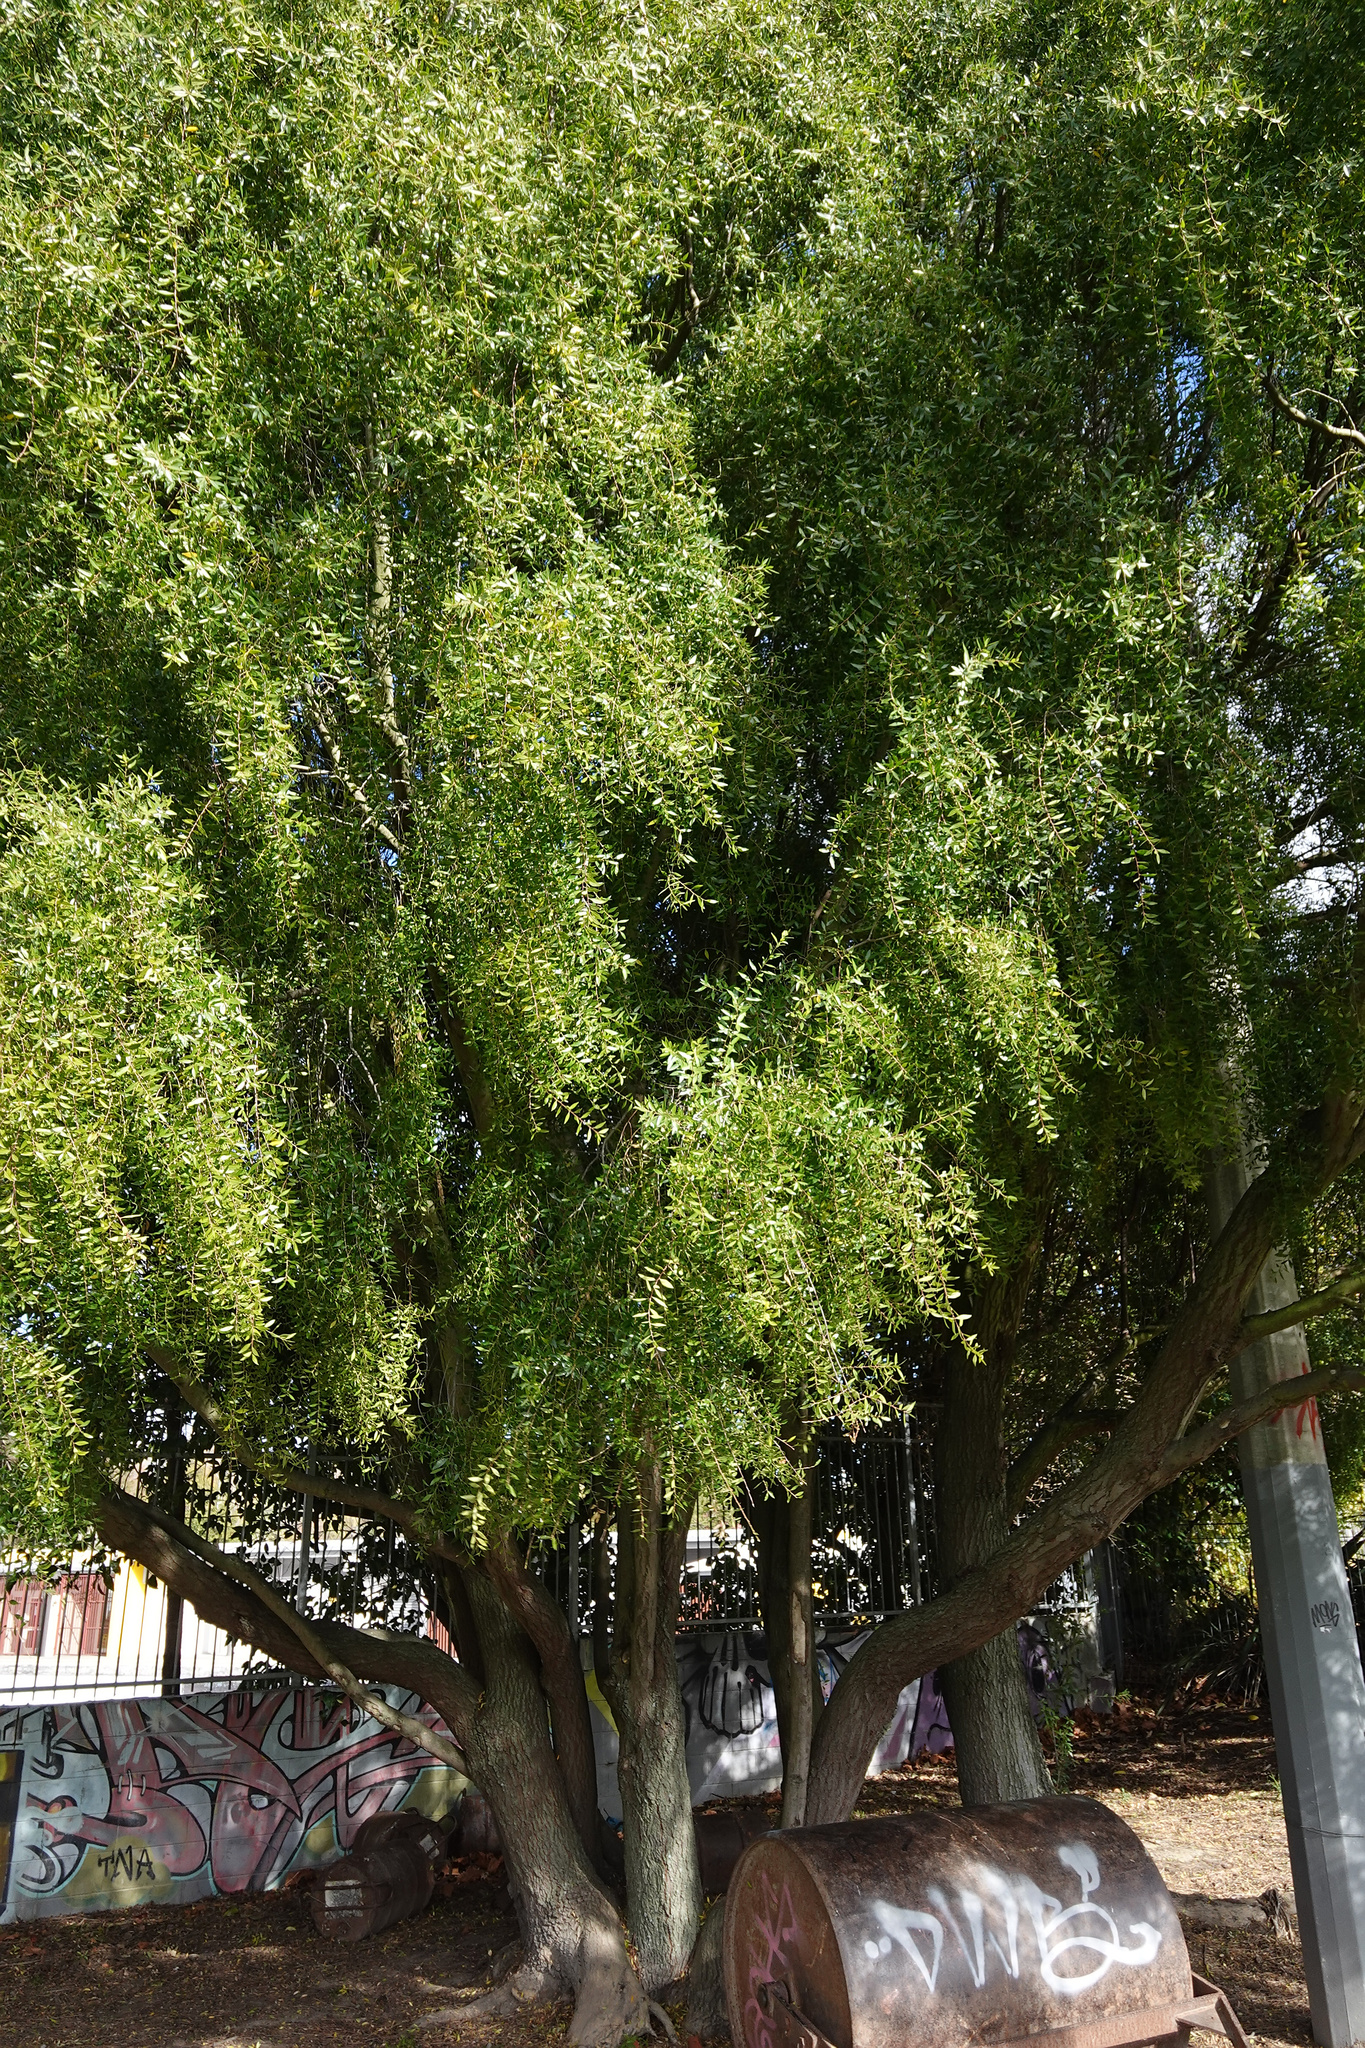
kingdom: Plantae
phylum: Tracheophyta
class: Magnoliopsida
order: Celastrales
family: Celastraceae
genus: Maytenus
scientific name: Maytenus boaria
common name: Mayten
